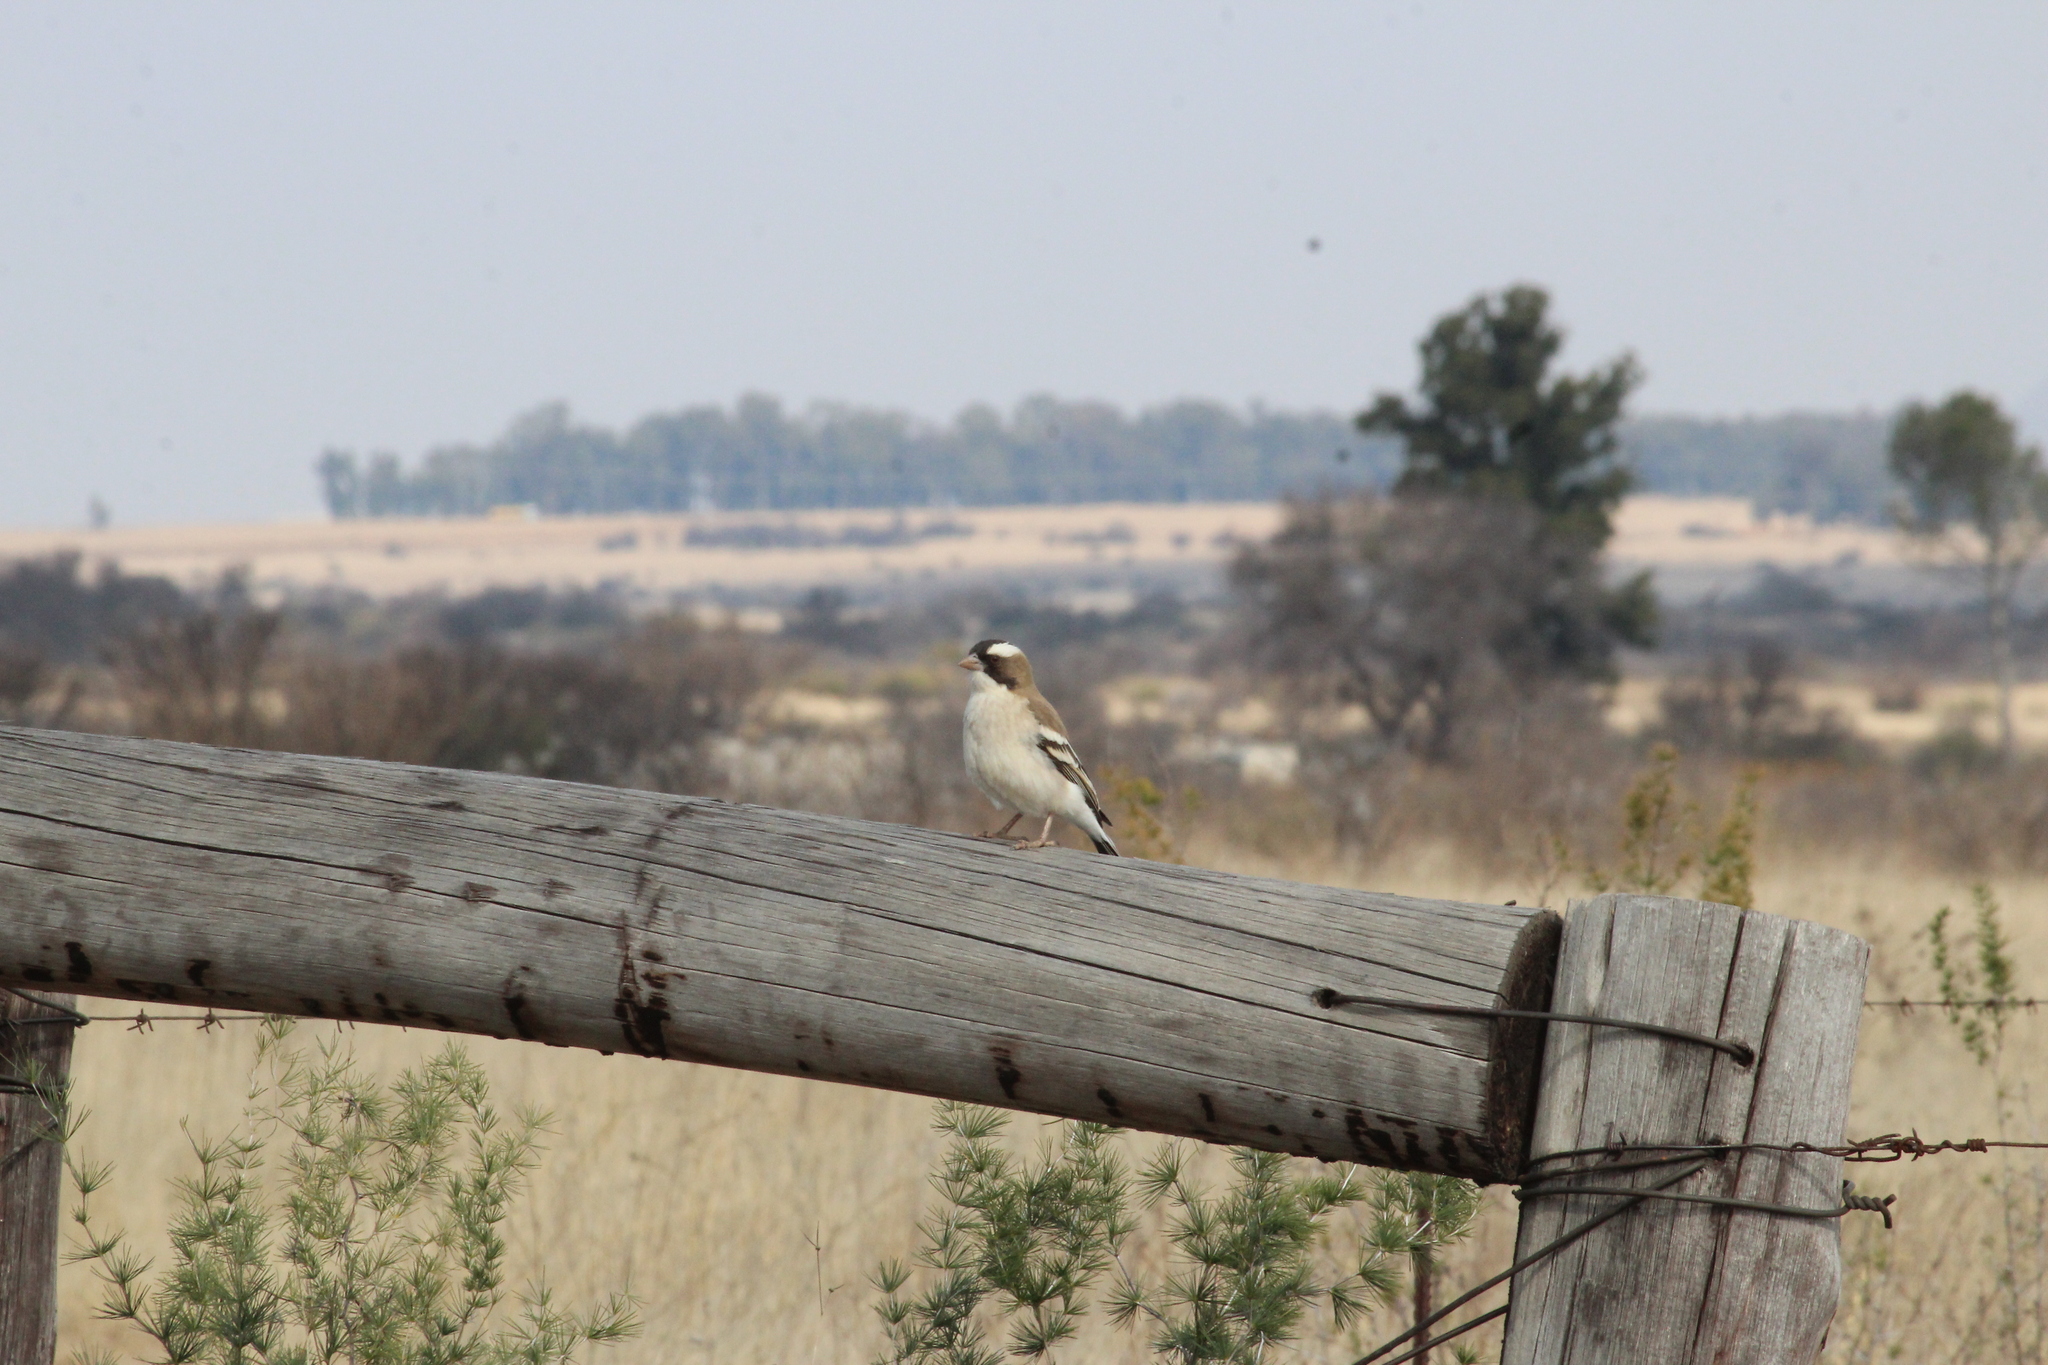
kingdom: Animalia
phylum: Chordata
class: Aves
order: Passeriformes
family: Passeridae
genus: Plocepasser
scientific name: Plocepasser mahali
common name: White-browed sparrow-weaver
